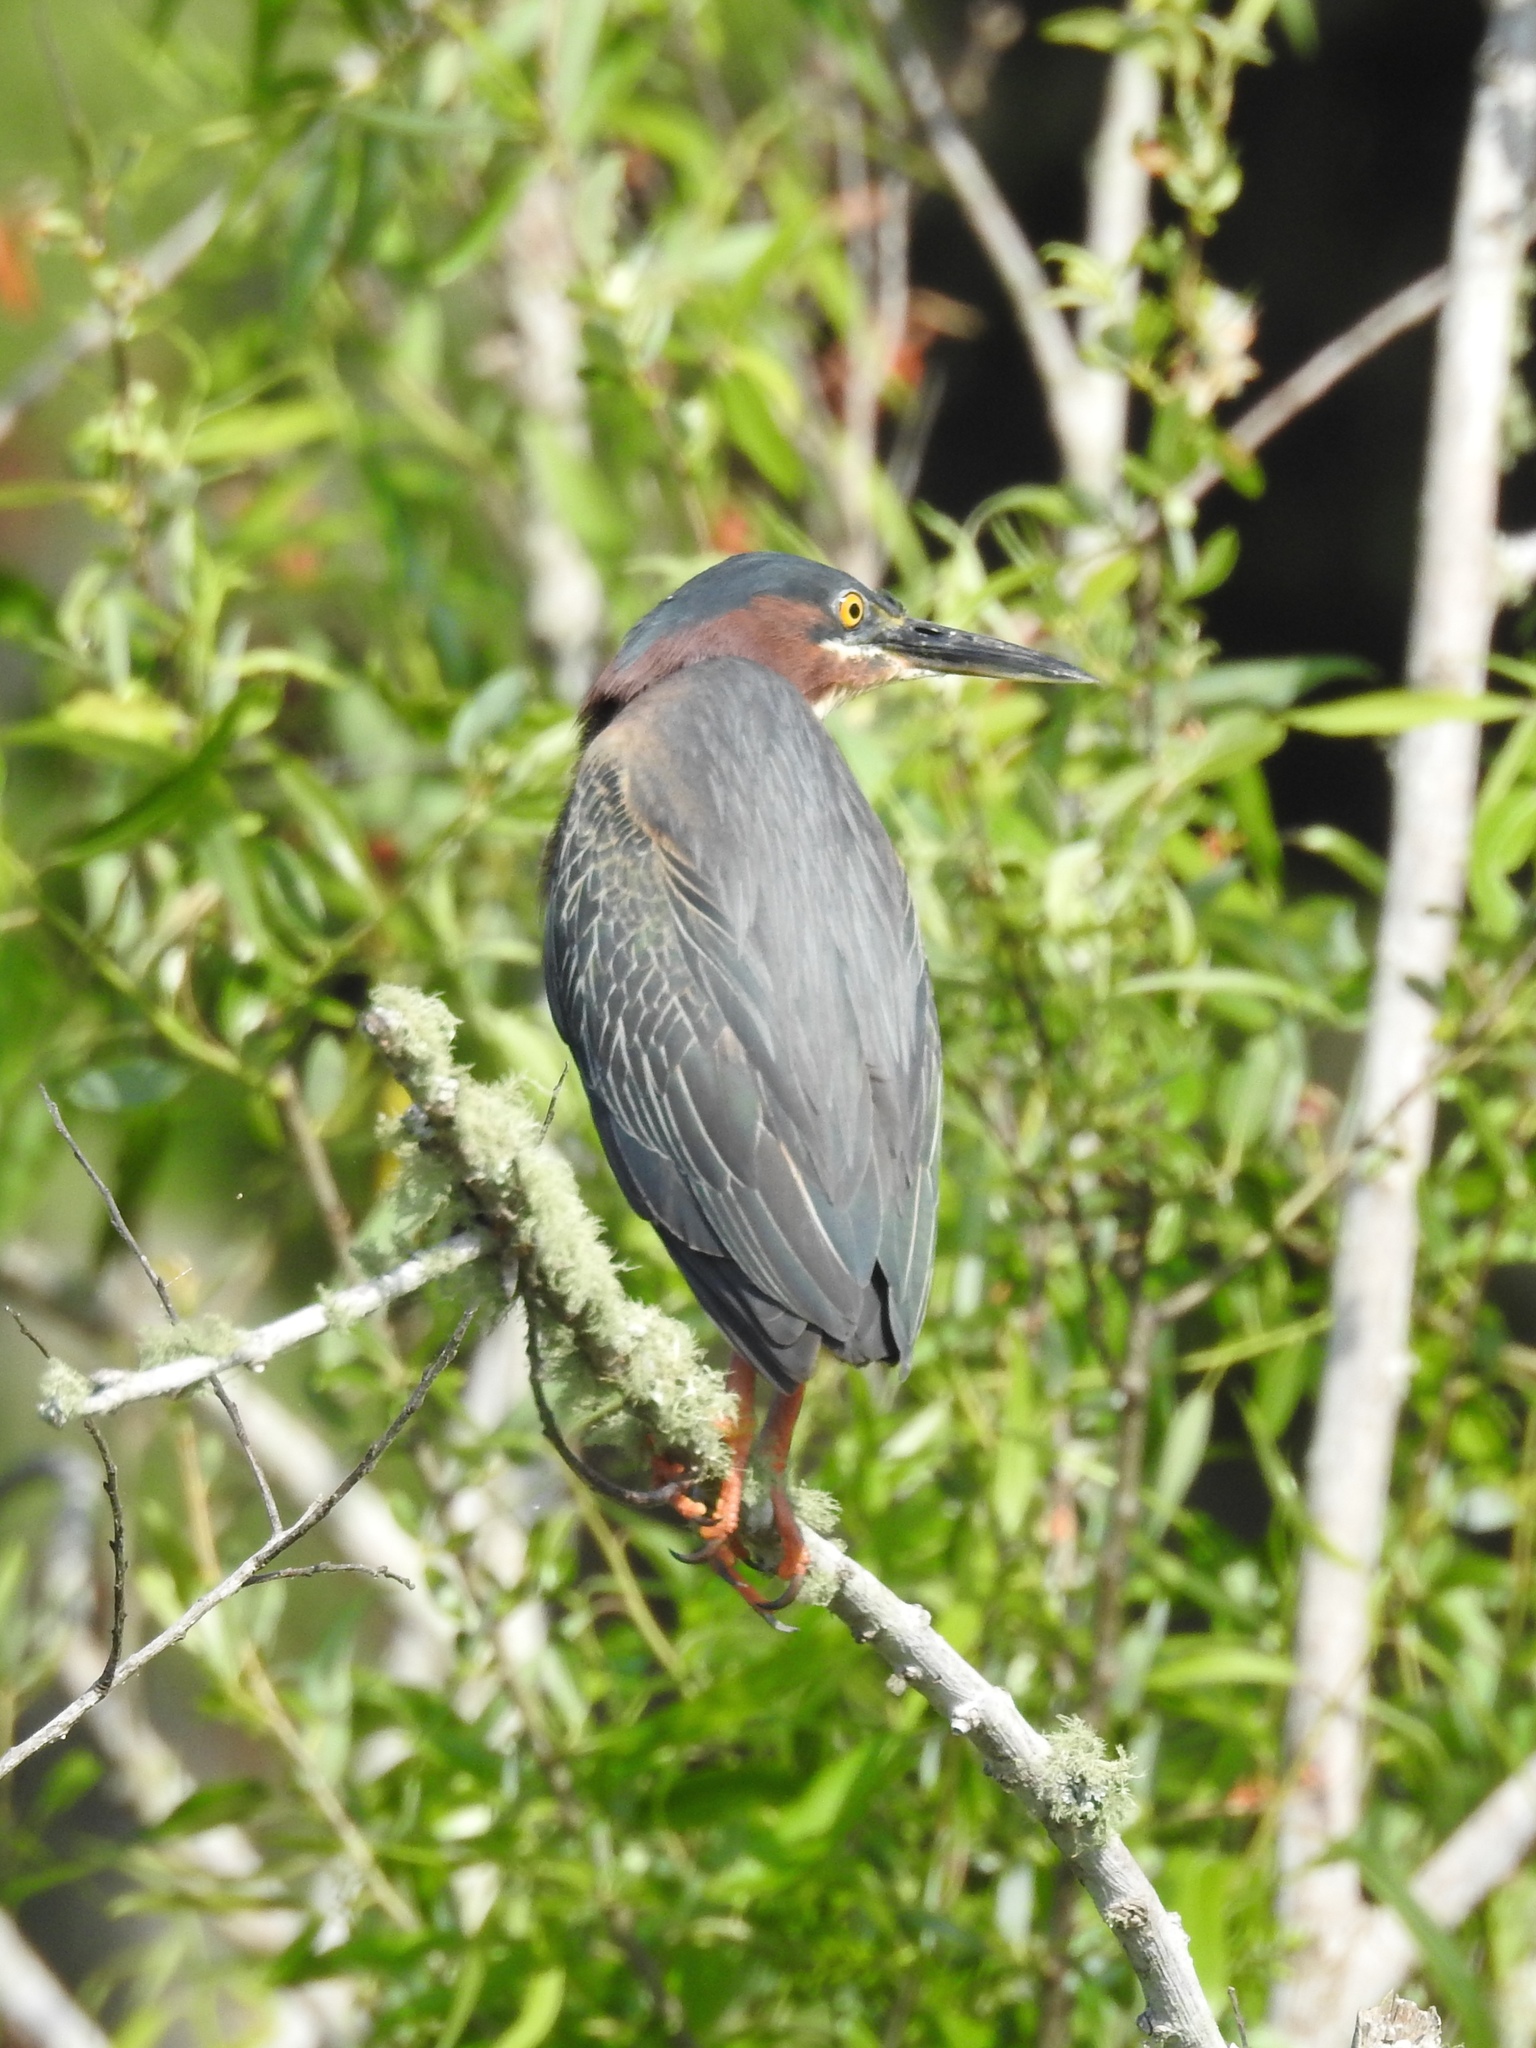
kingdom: Animalia
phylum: Chordata
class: Aves
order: Pelecaniformes
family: Ardeidae
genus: Butorides
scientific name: Butorides virescens
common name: Green heron
